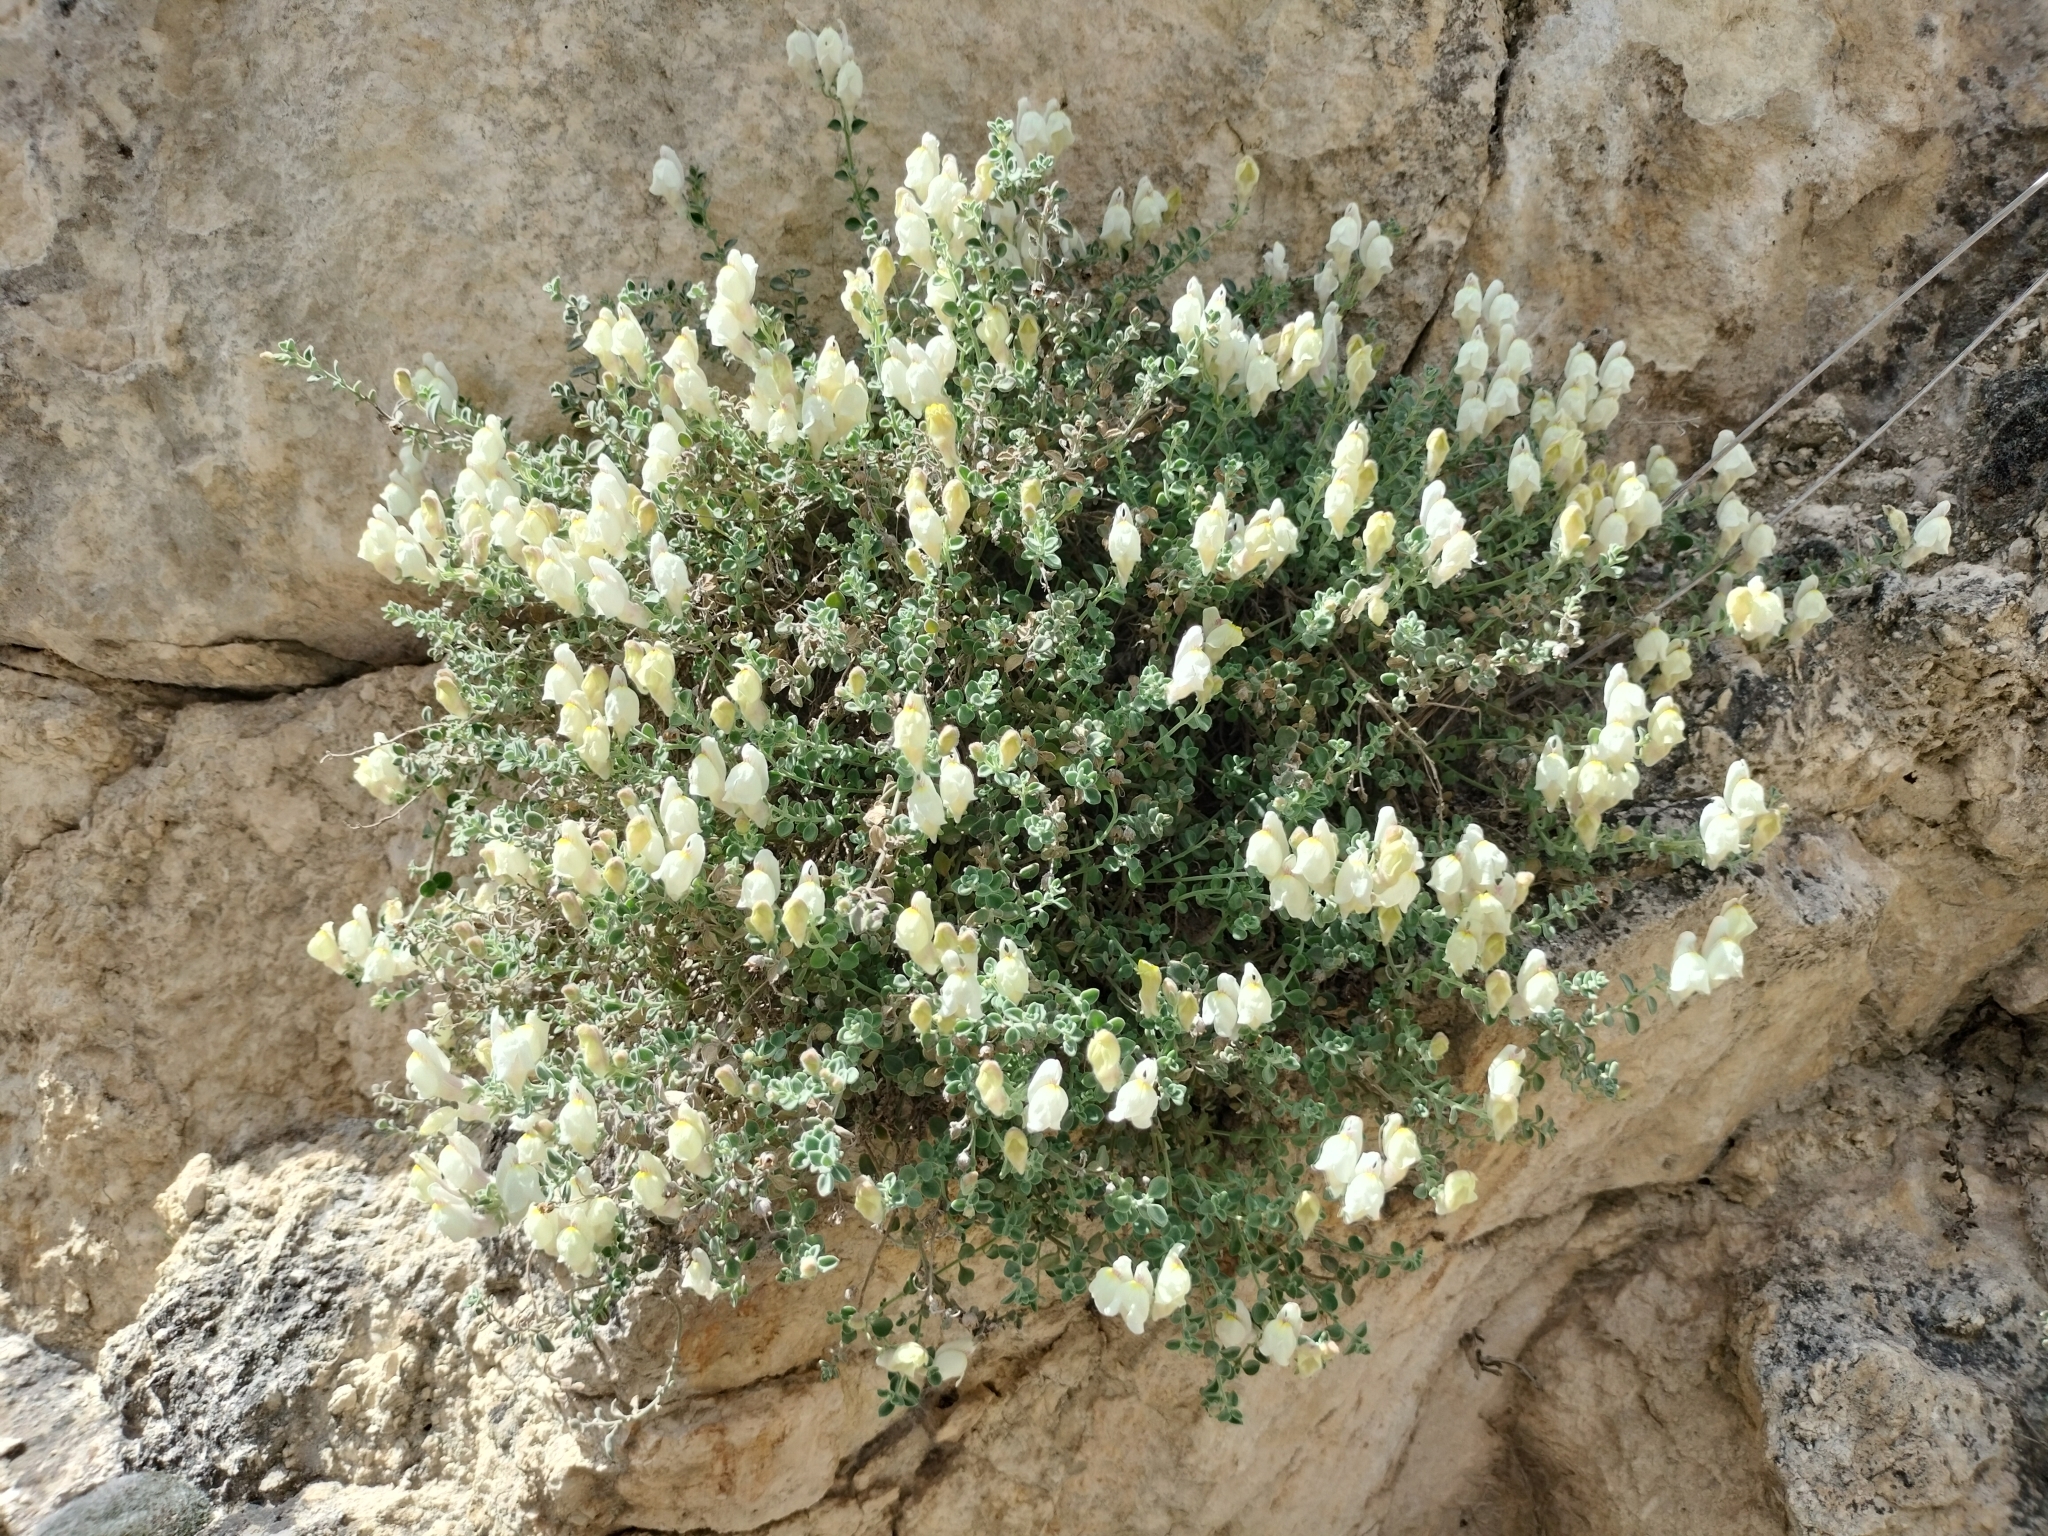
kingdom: Plantae
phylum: Tracheophyta
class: Magnoliopsida
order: Lamiales
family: Plantaginaceae
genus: Antirrhinum
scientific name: Antirrhinum microphyllum
